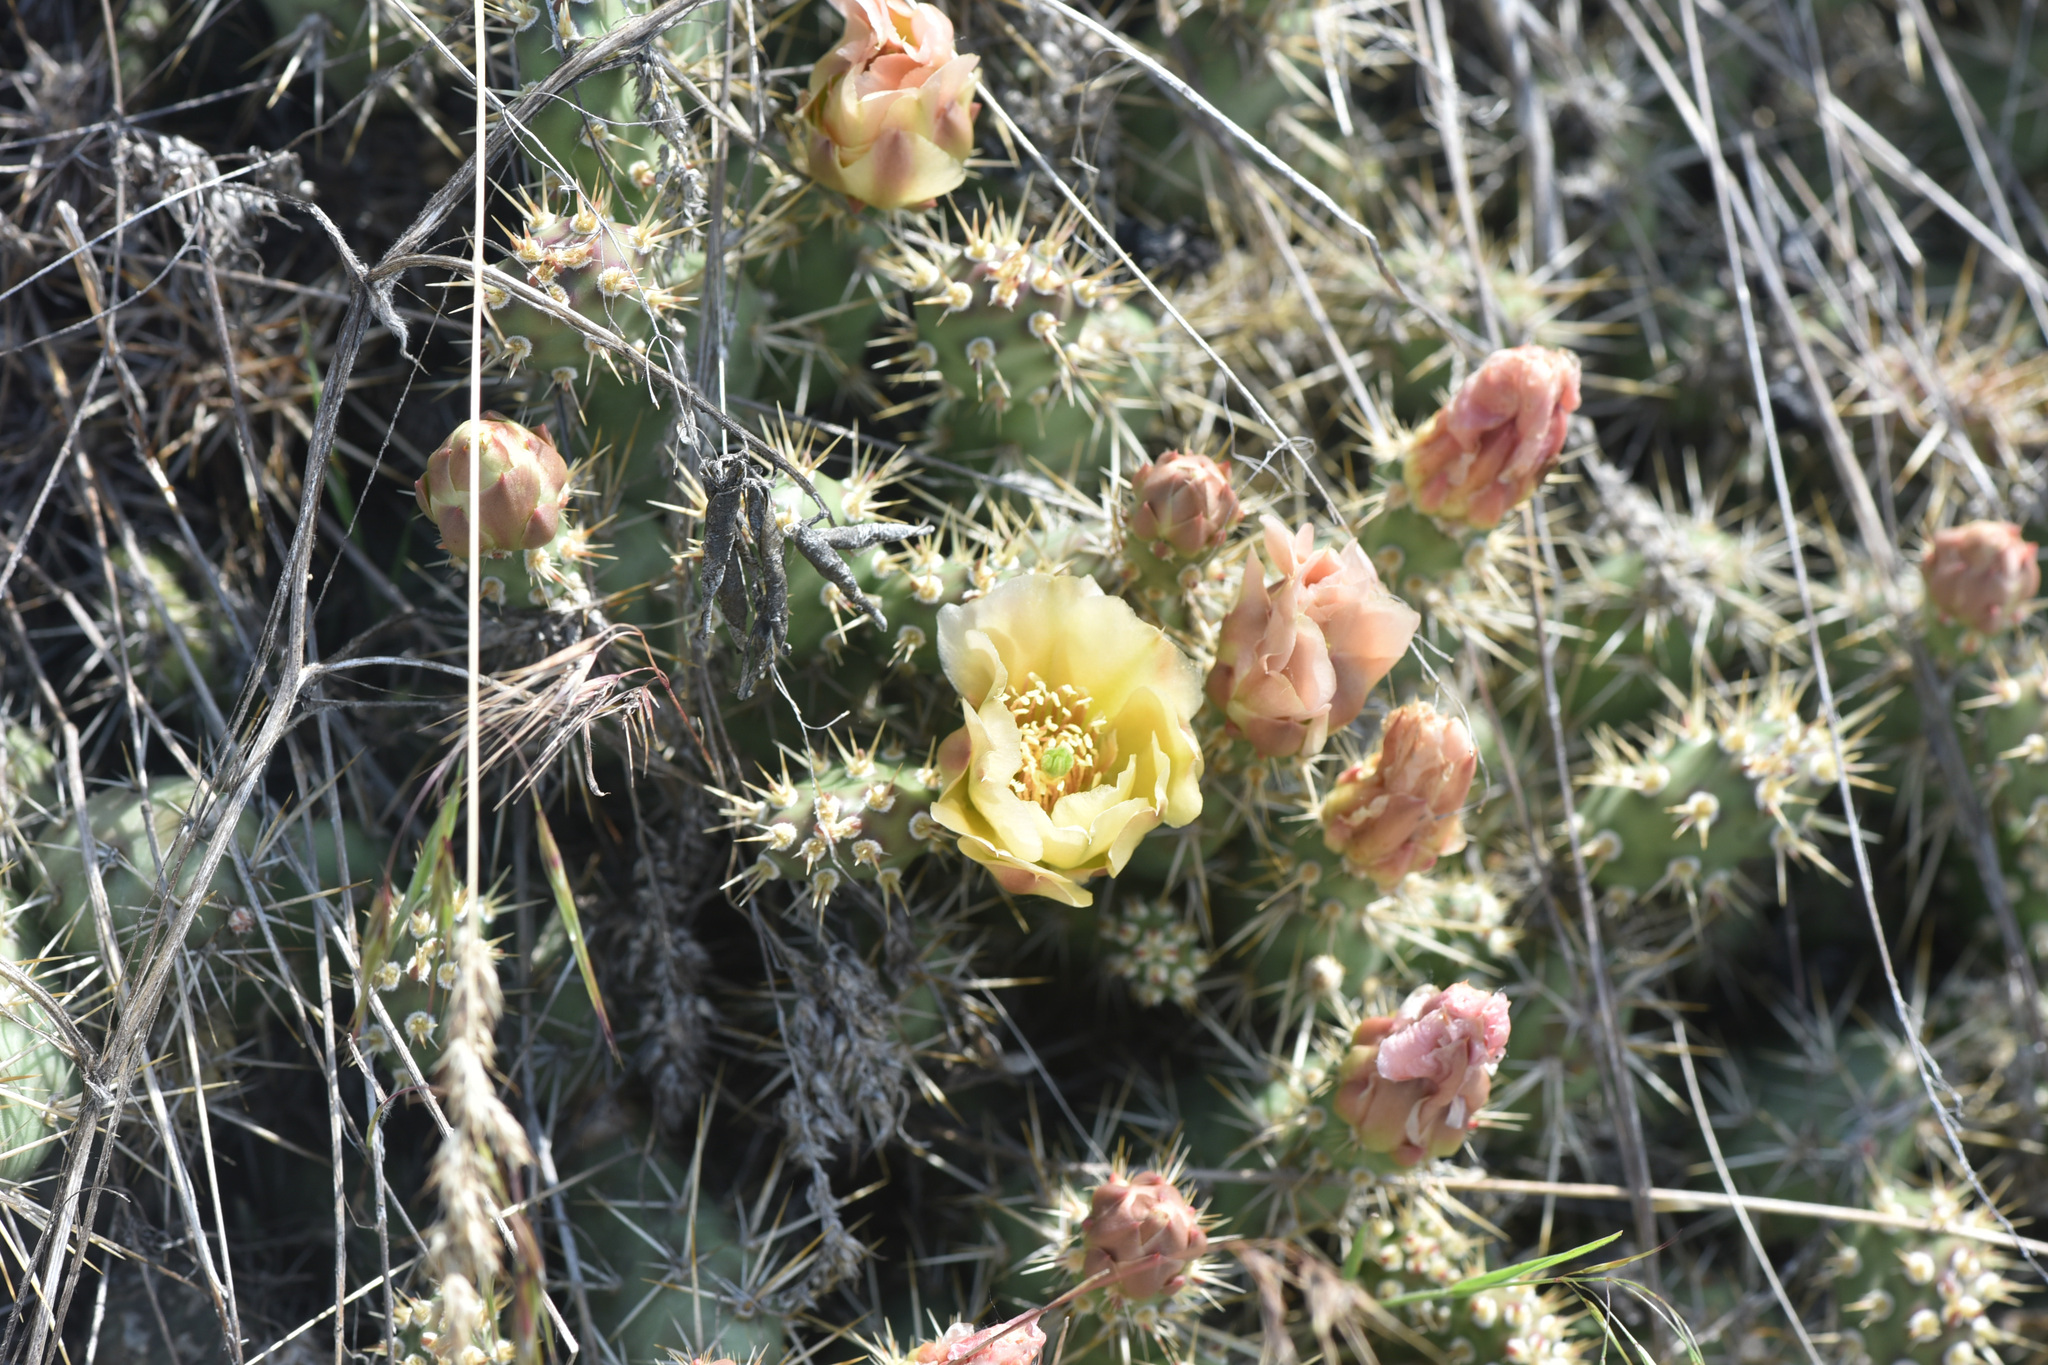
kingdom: Plantae
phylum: Tracheophyta
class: Magnoliopsida
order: Caryophyllales
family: Cactaceae
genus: Opuntia
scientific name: Opuntia fragilis
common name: Brittle cactus
